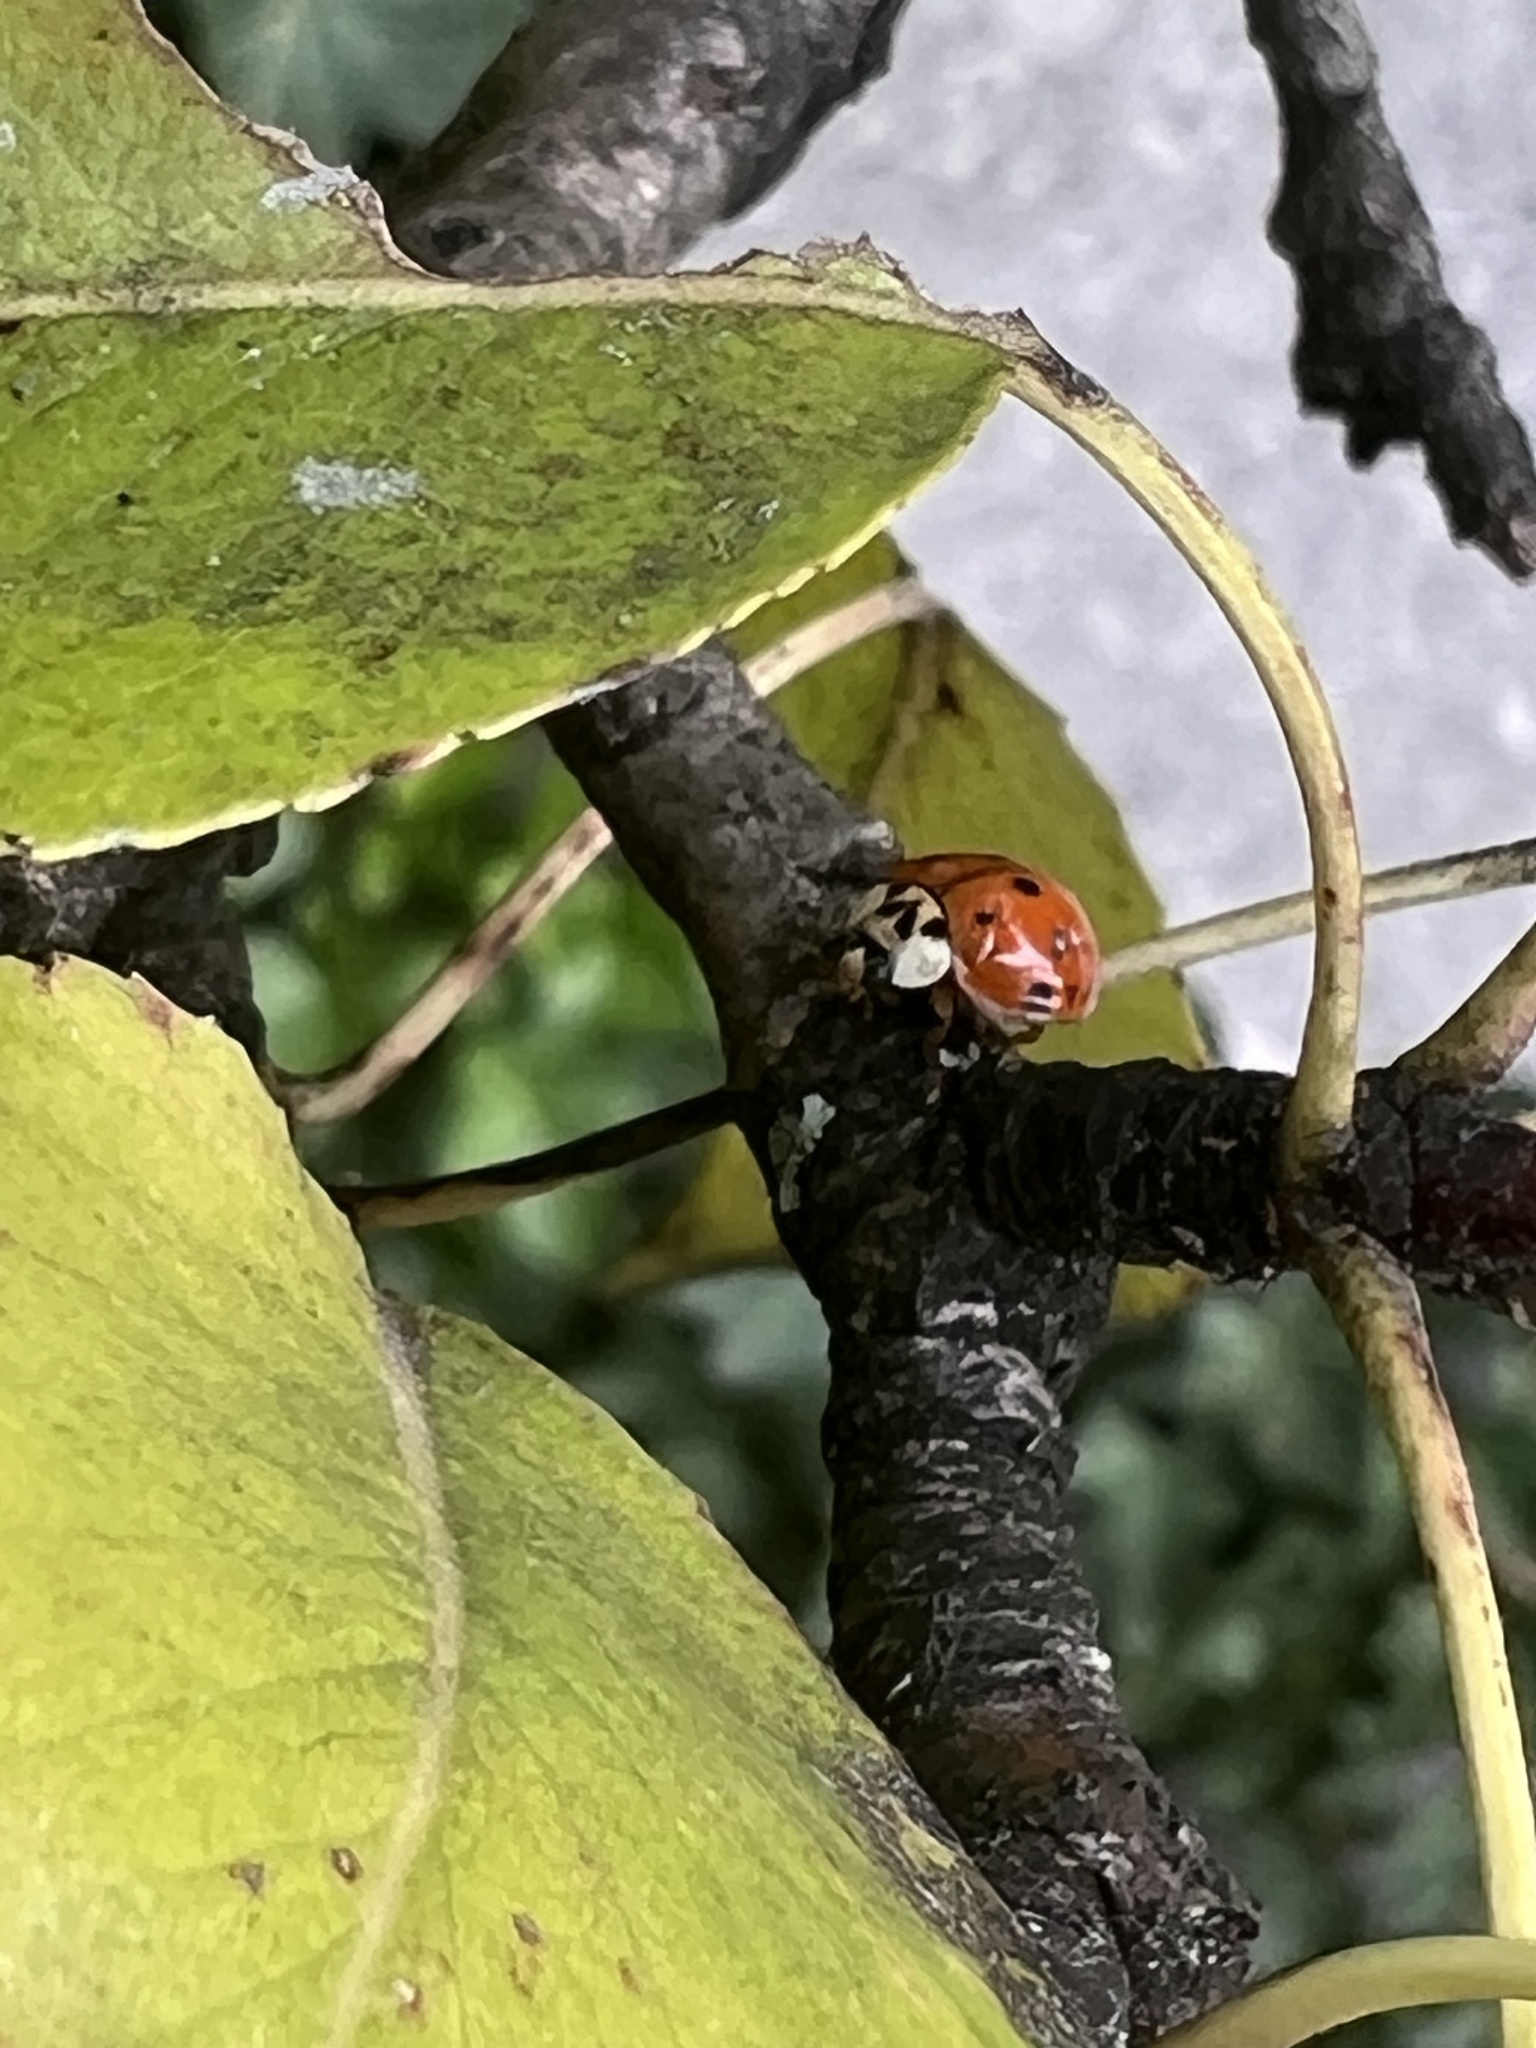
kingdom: Animalia
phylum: Arthropoda
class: Insecta
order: Coleoptera
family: Coccinellidae
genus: Harmonia
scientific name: Harmonia axyridis
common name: Harlequin ladybird
